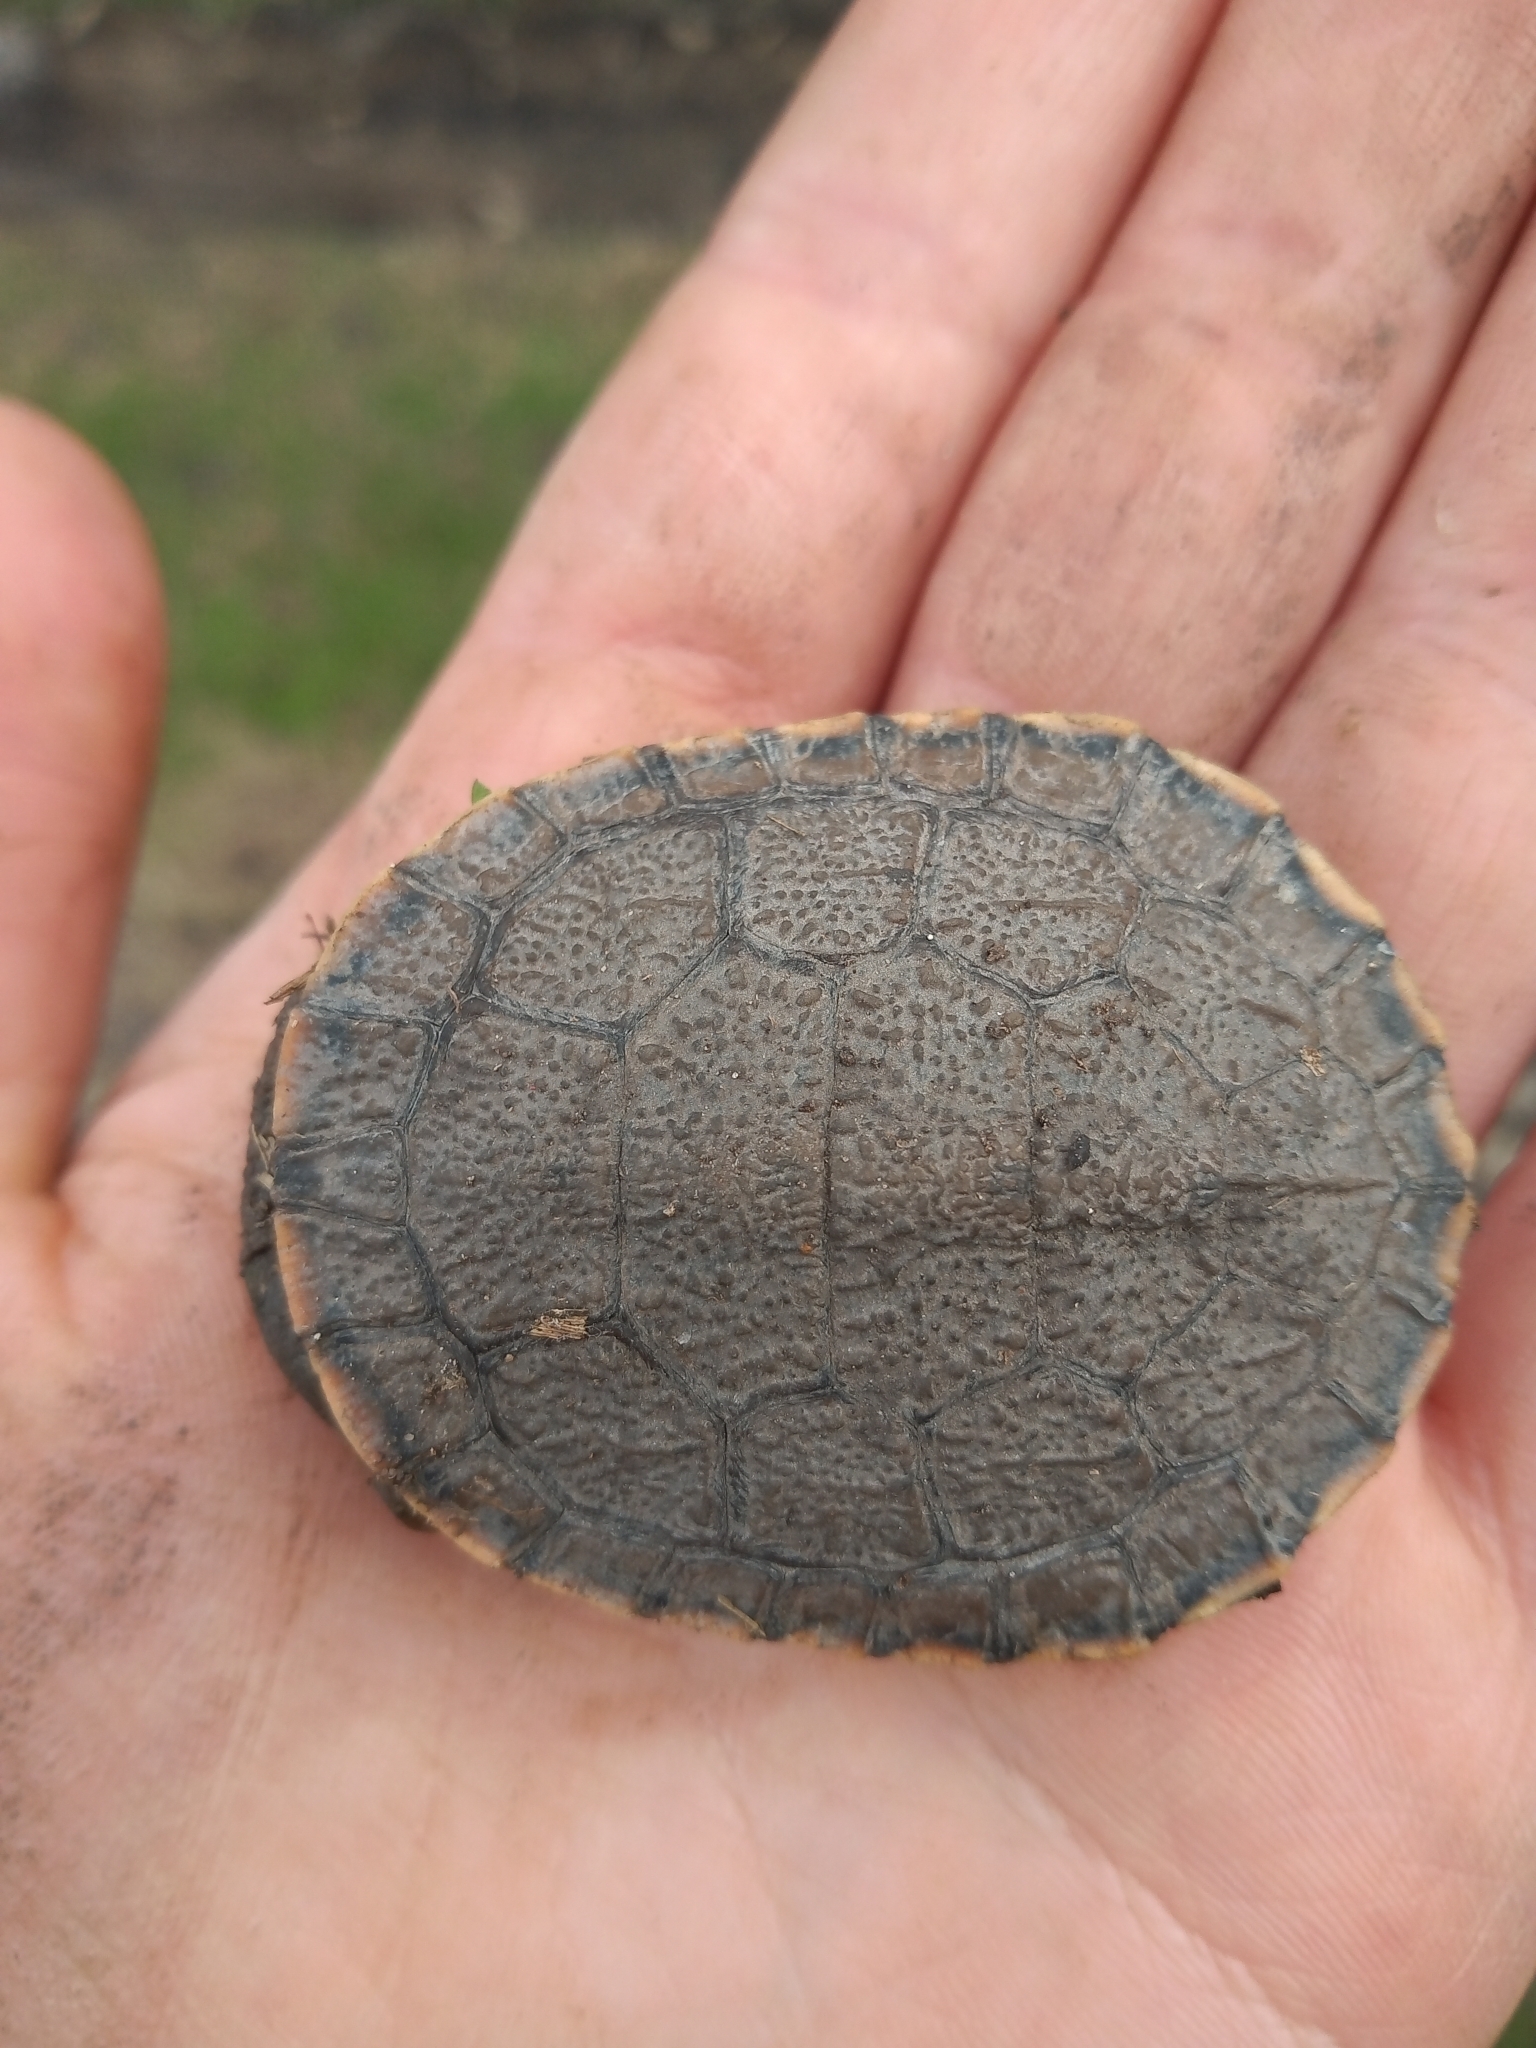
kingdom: Animalia
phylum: Chordata
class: Testudines
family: Chelidae
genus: Phrynops
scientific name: Phrynops hilarii
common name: Side-necked turtle of saint hillaire
